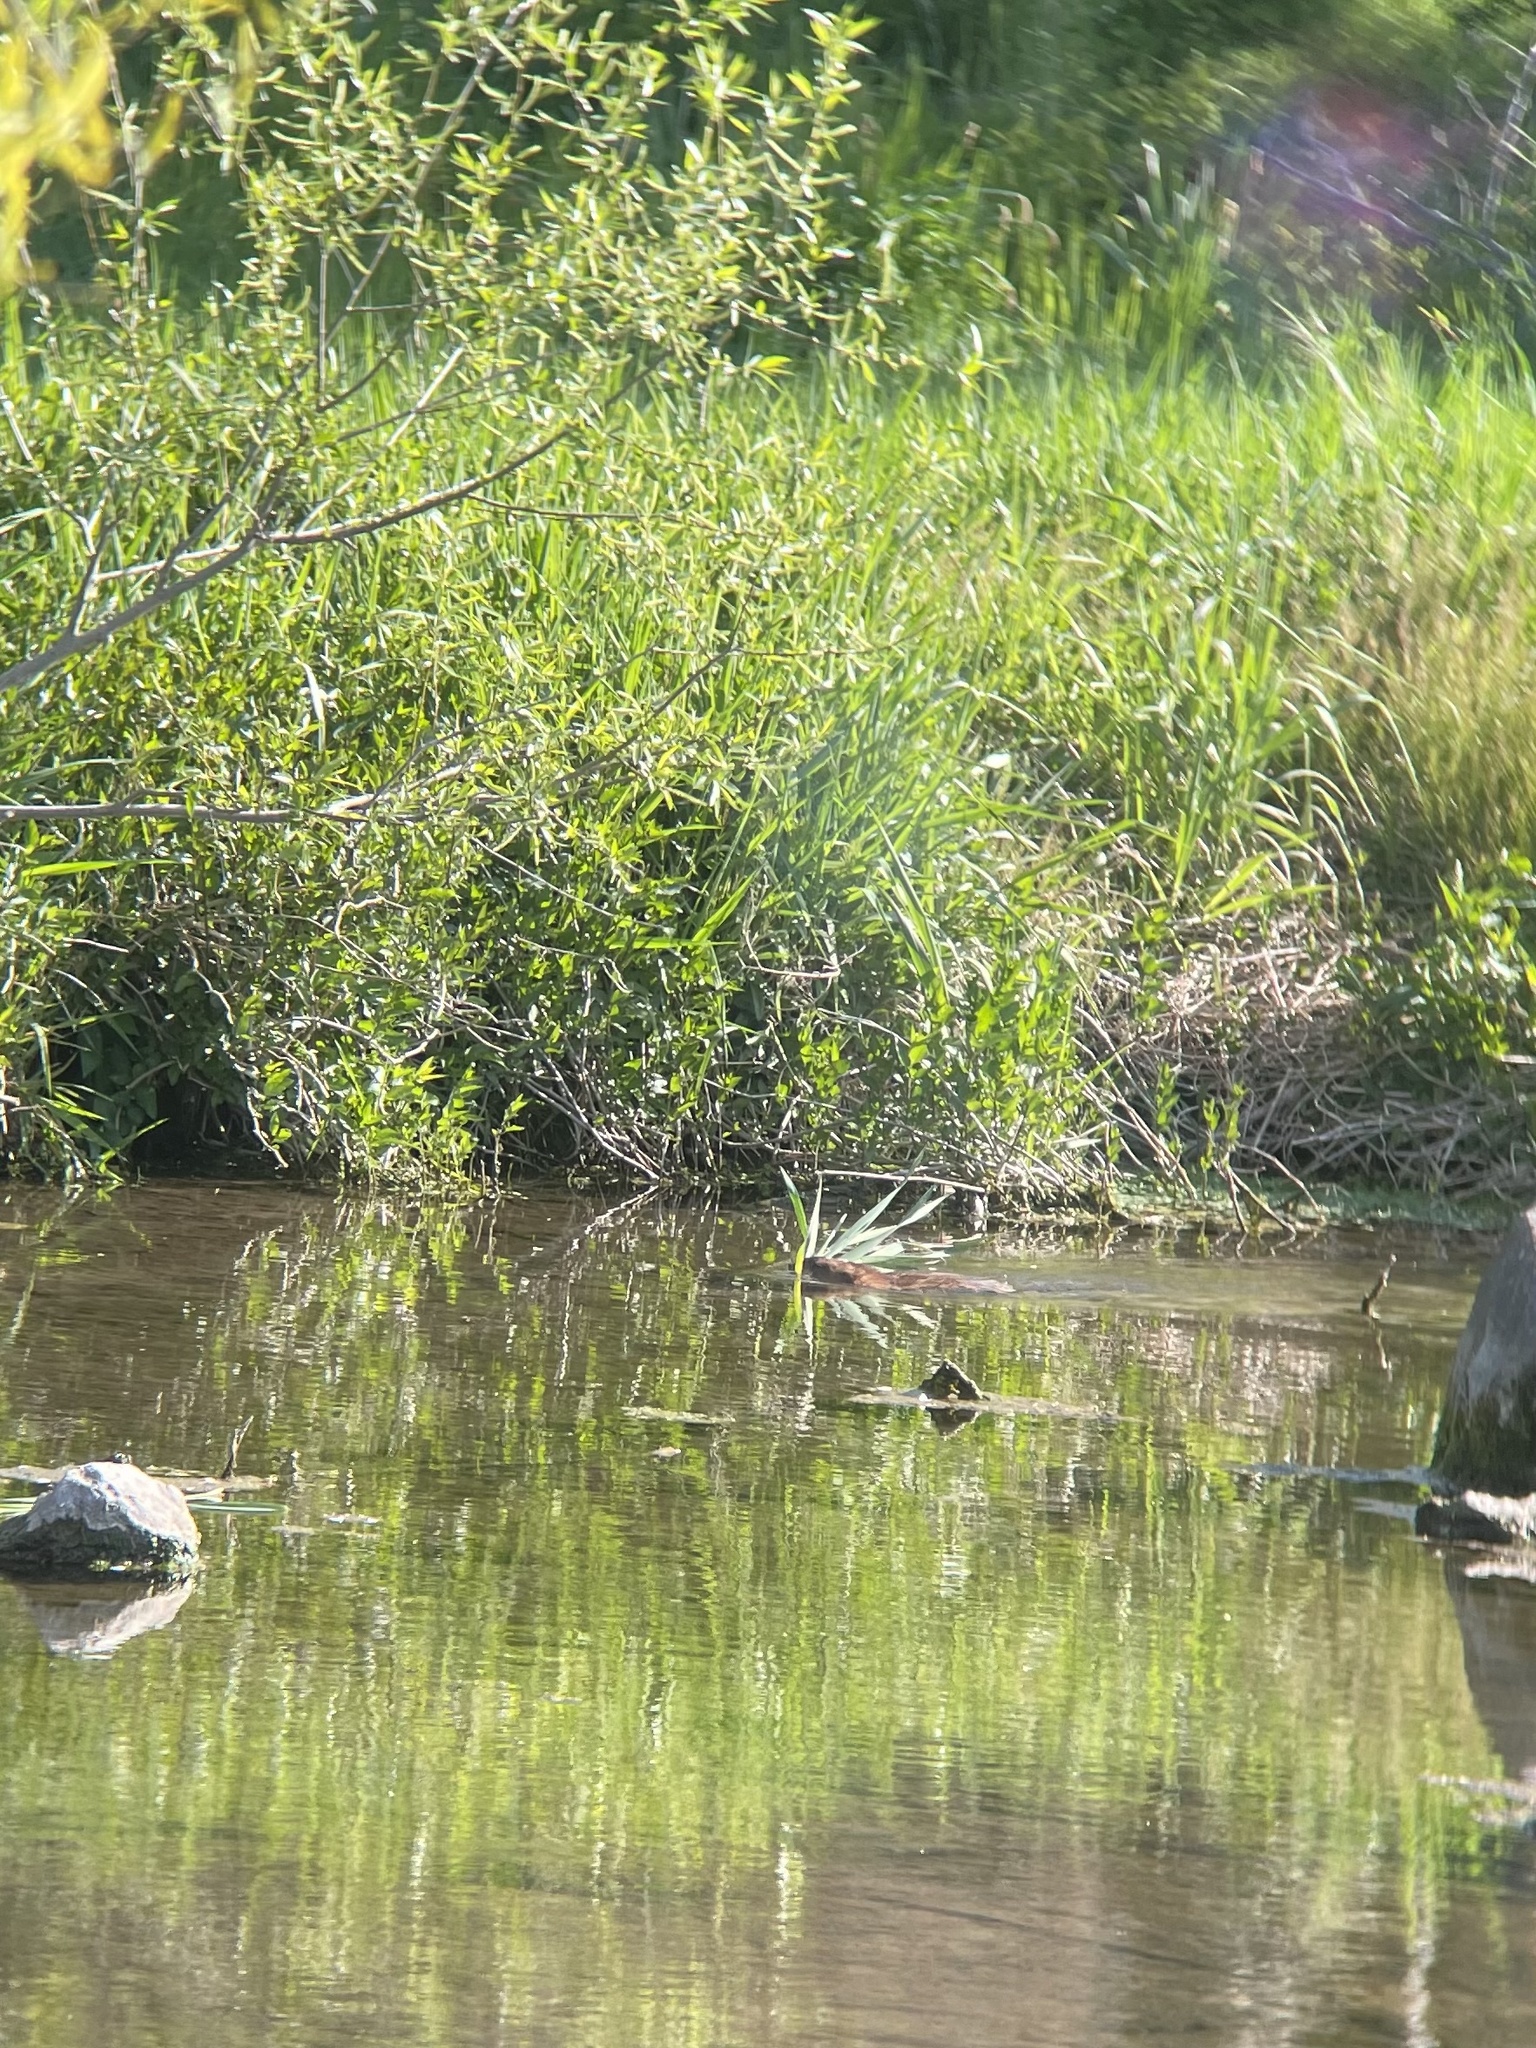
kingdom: Animalia
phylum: Chordata
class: Mammalia
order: Rodentia
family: Cricetidae
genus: Ondatra
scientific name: Ondatra zibethicus
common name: Muskrat
